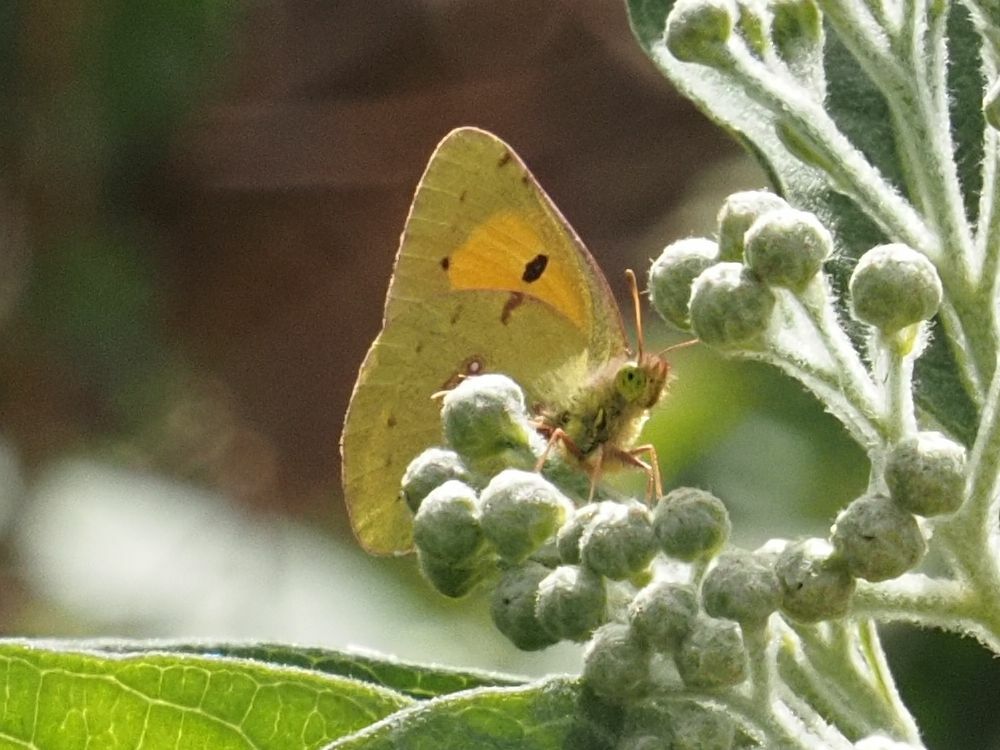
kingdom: Animalia
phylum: Arthropoda
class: Insecta
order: Lepidoptera
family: Pieridae
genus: Colias
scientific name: Colias croceus
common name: Clouded yellow
